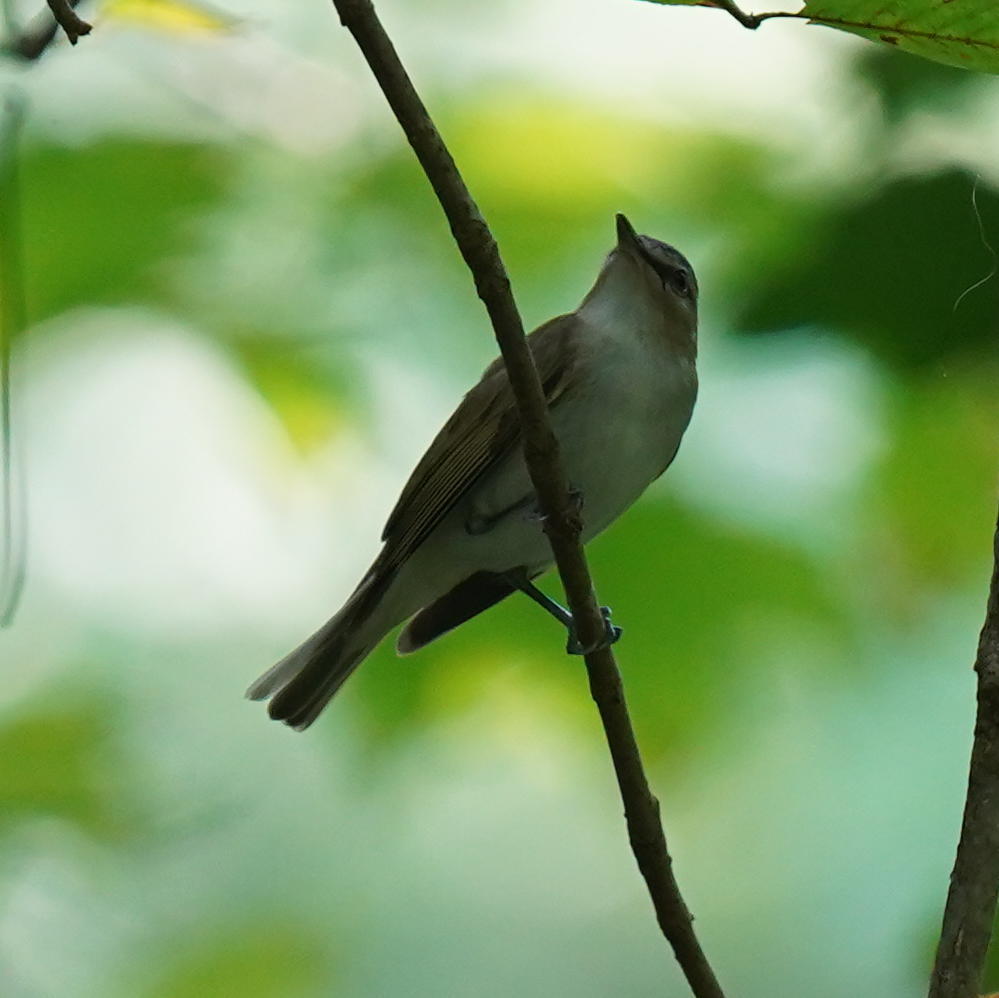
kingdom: Animalia
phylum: Chordata
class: Aves
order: Passeriformes
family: Vireonidae
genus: Vireo
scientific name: Vireo olivaceus
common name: Red-eyed vireo
